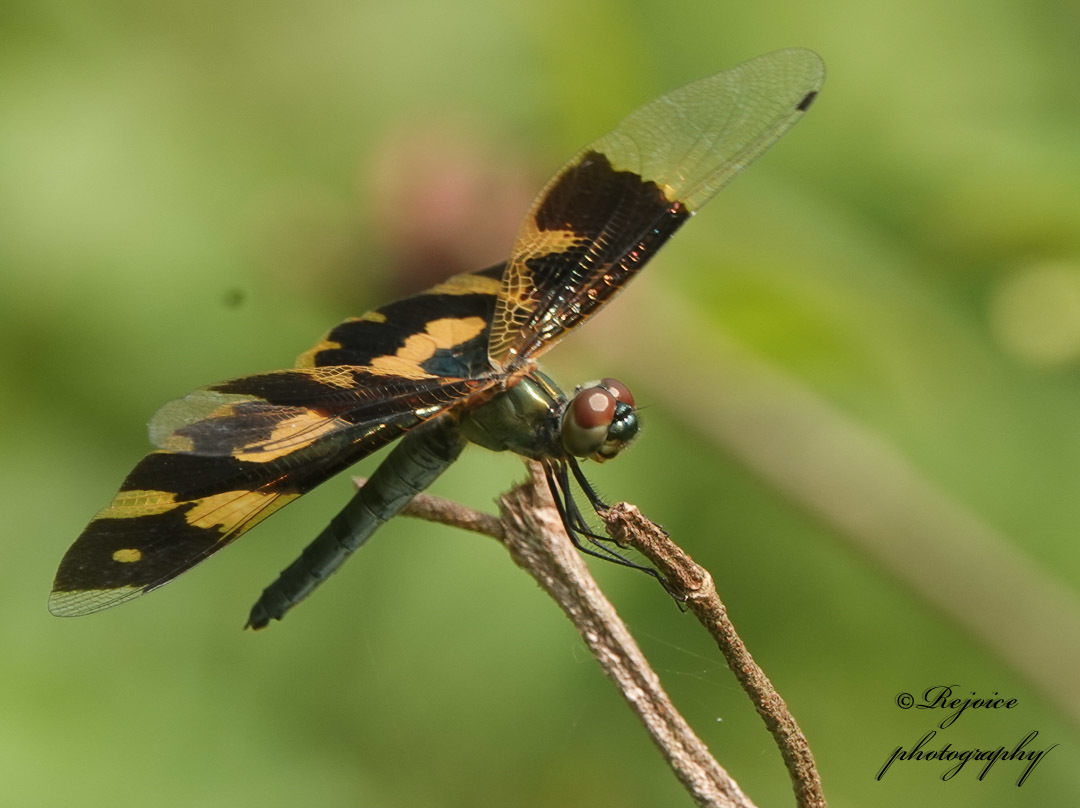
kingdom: Animalia
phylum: Arthropoda
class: Insecta
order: Odonata
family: Libellulidae
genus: Rhyothemis
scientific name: Rhyothemis variegata
